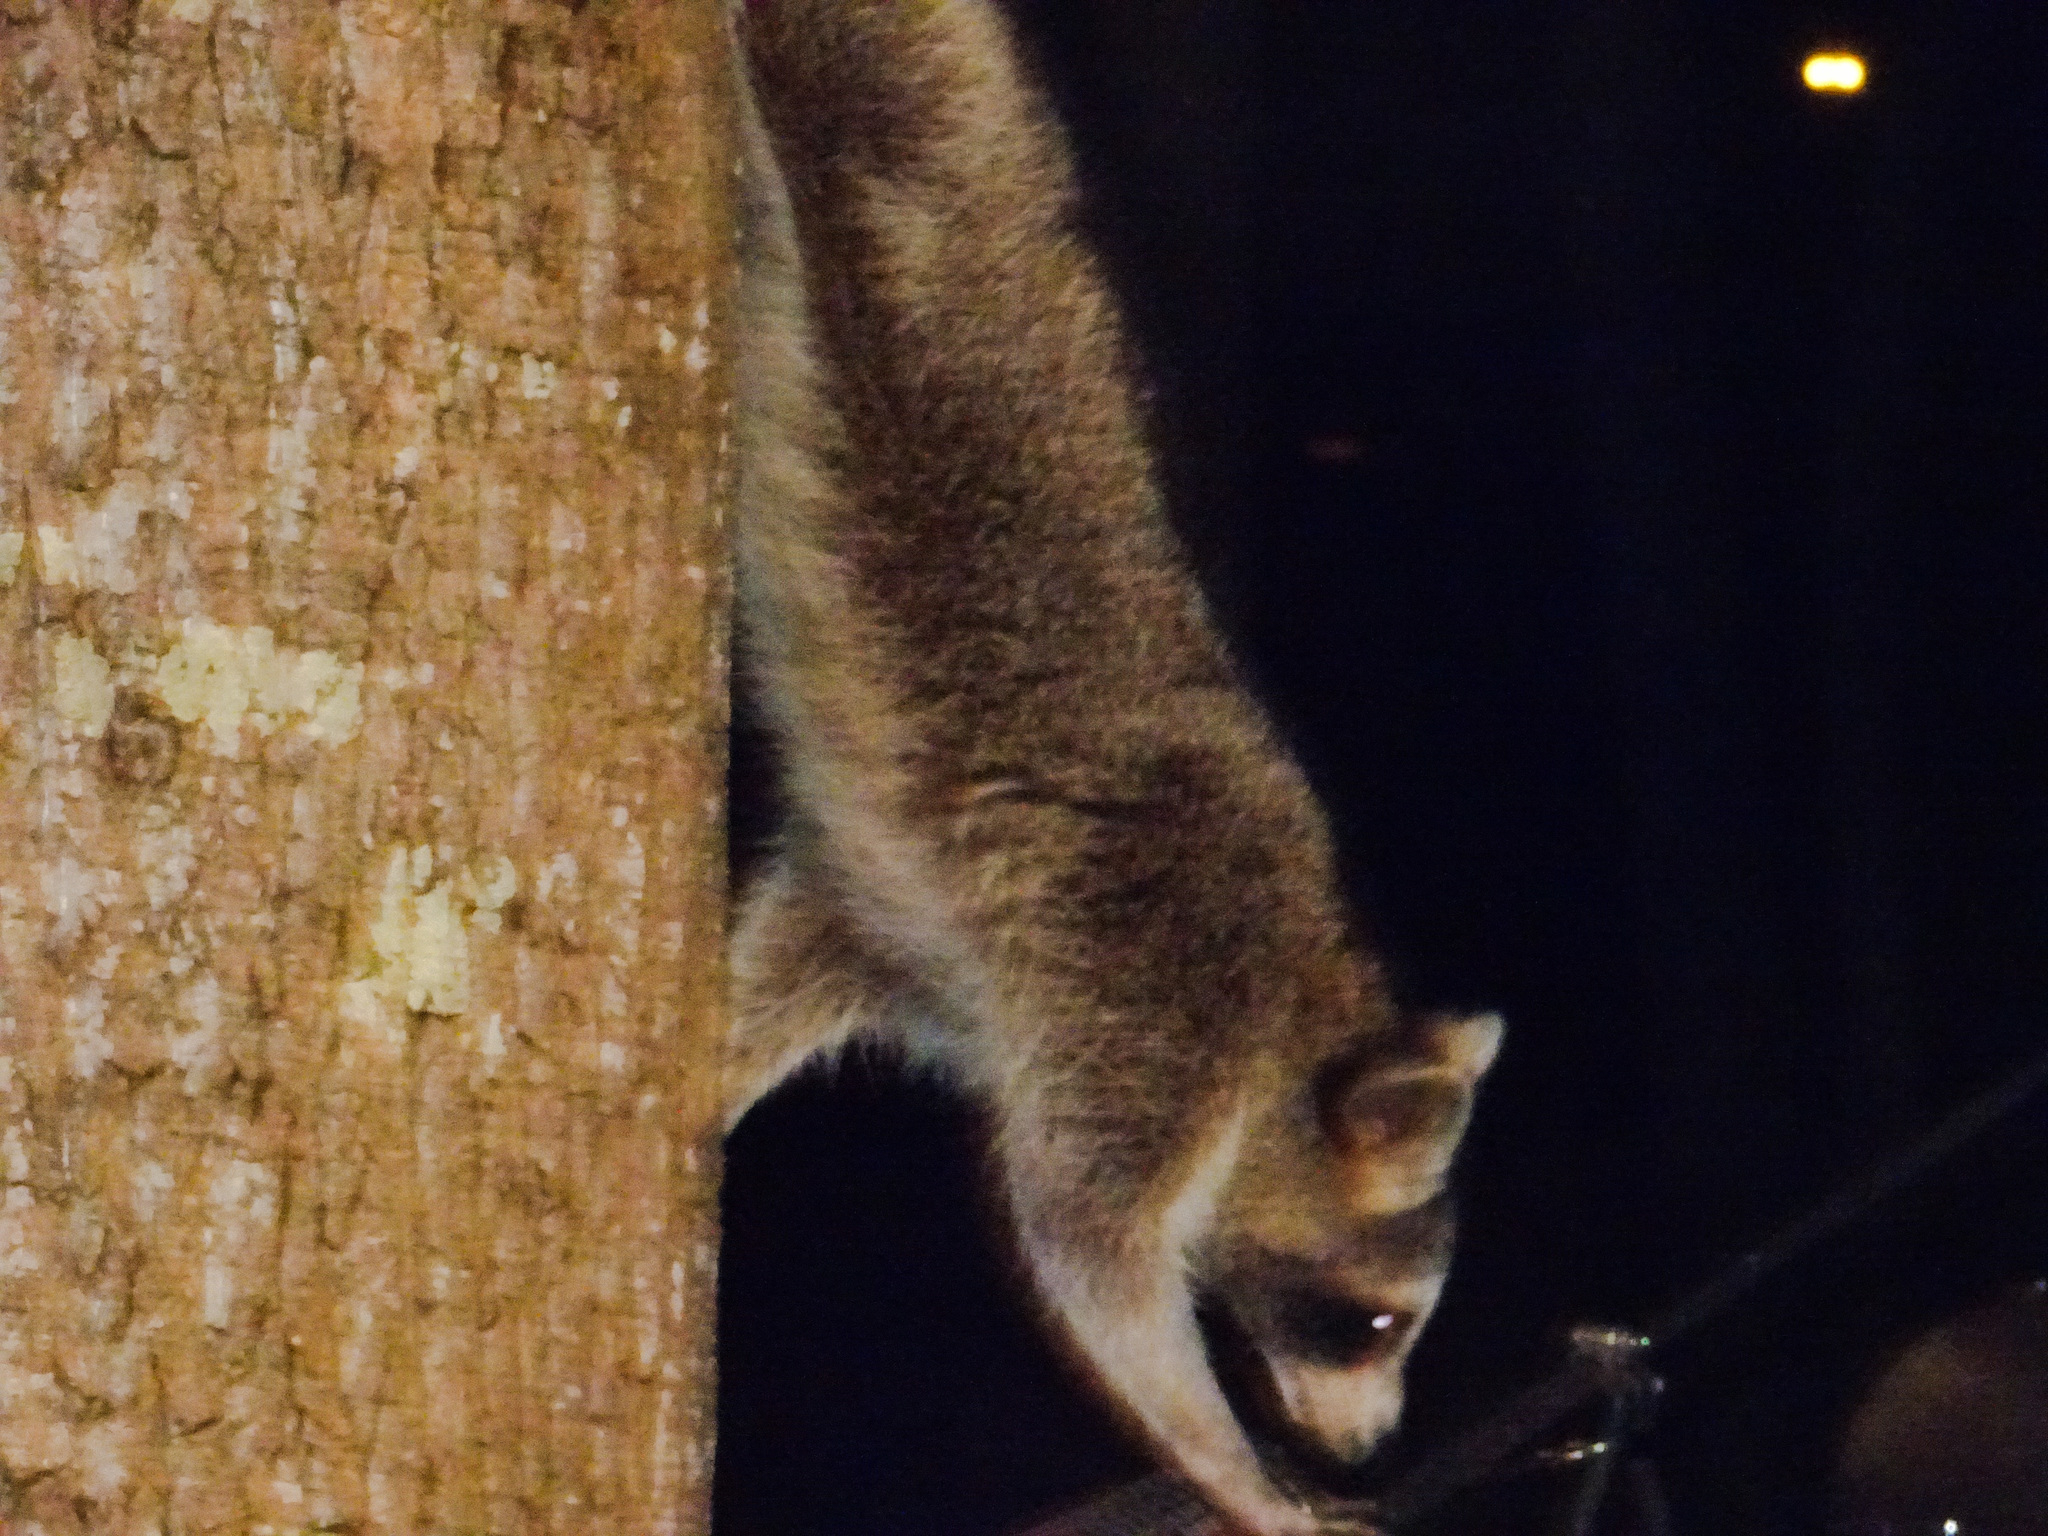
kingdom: Animalia
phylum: Chordata
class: Mammalia
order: Carnivora
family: Procyonidae
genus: Procyon
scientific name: Procyon lotor
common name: Raccoon
